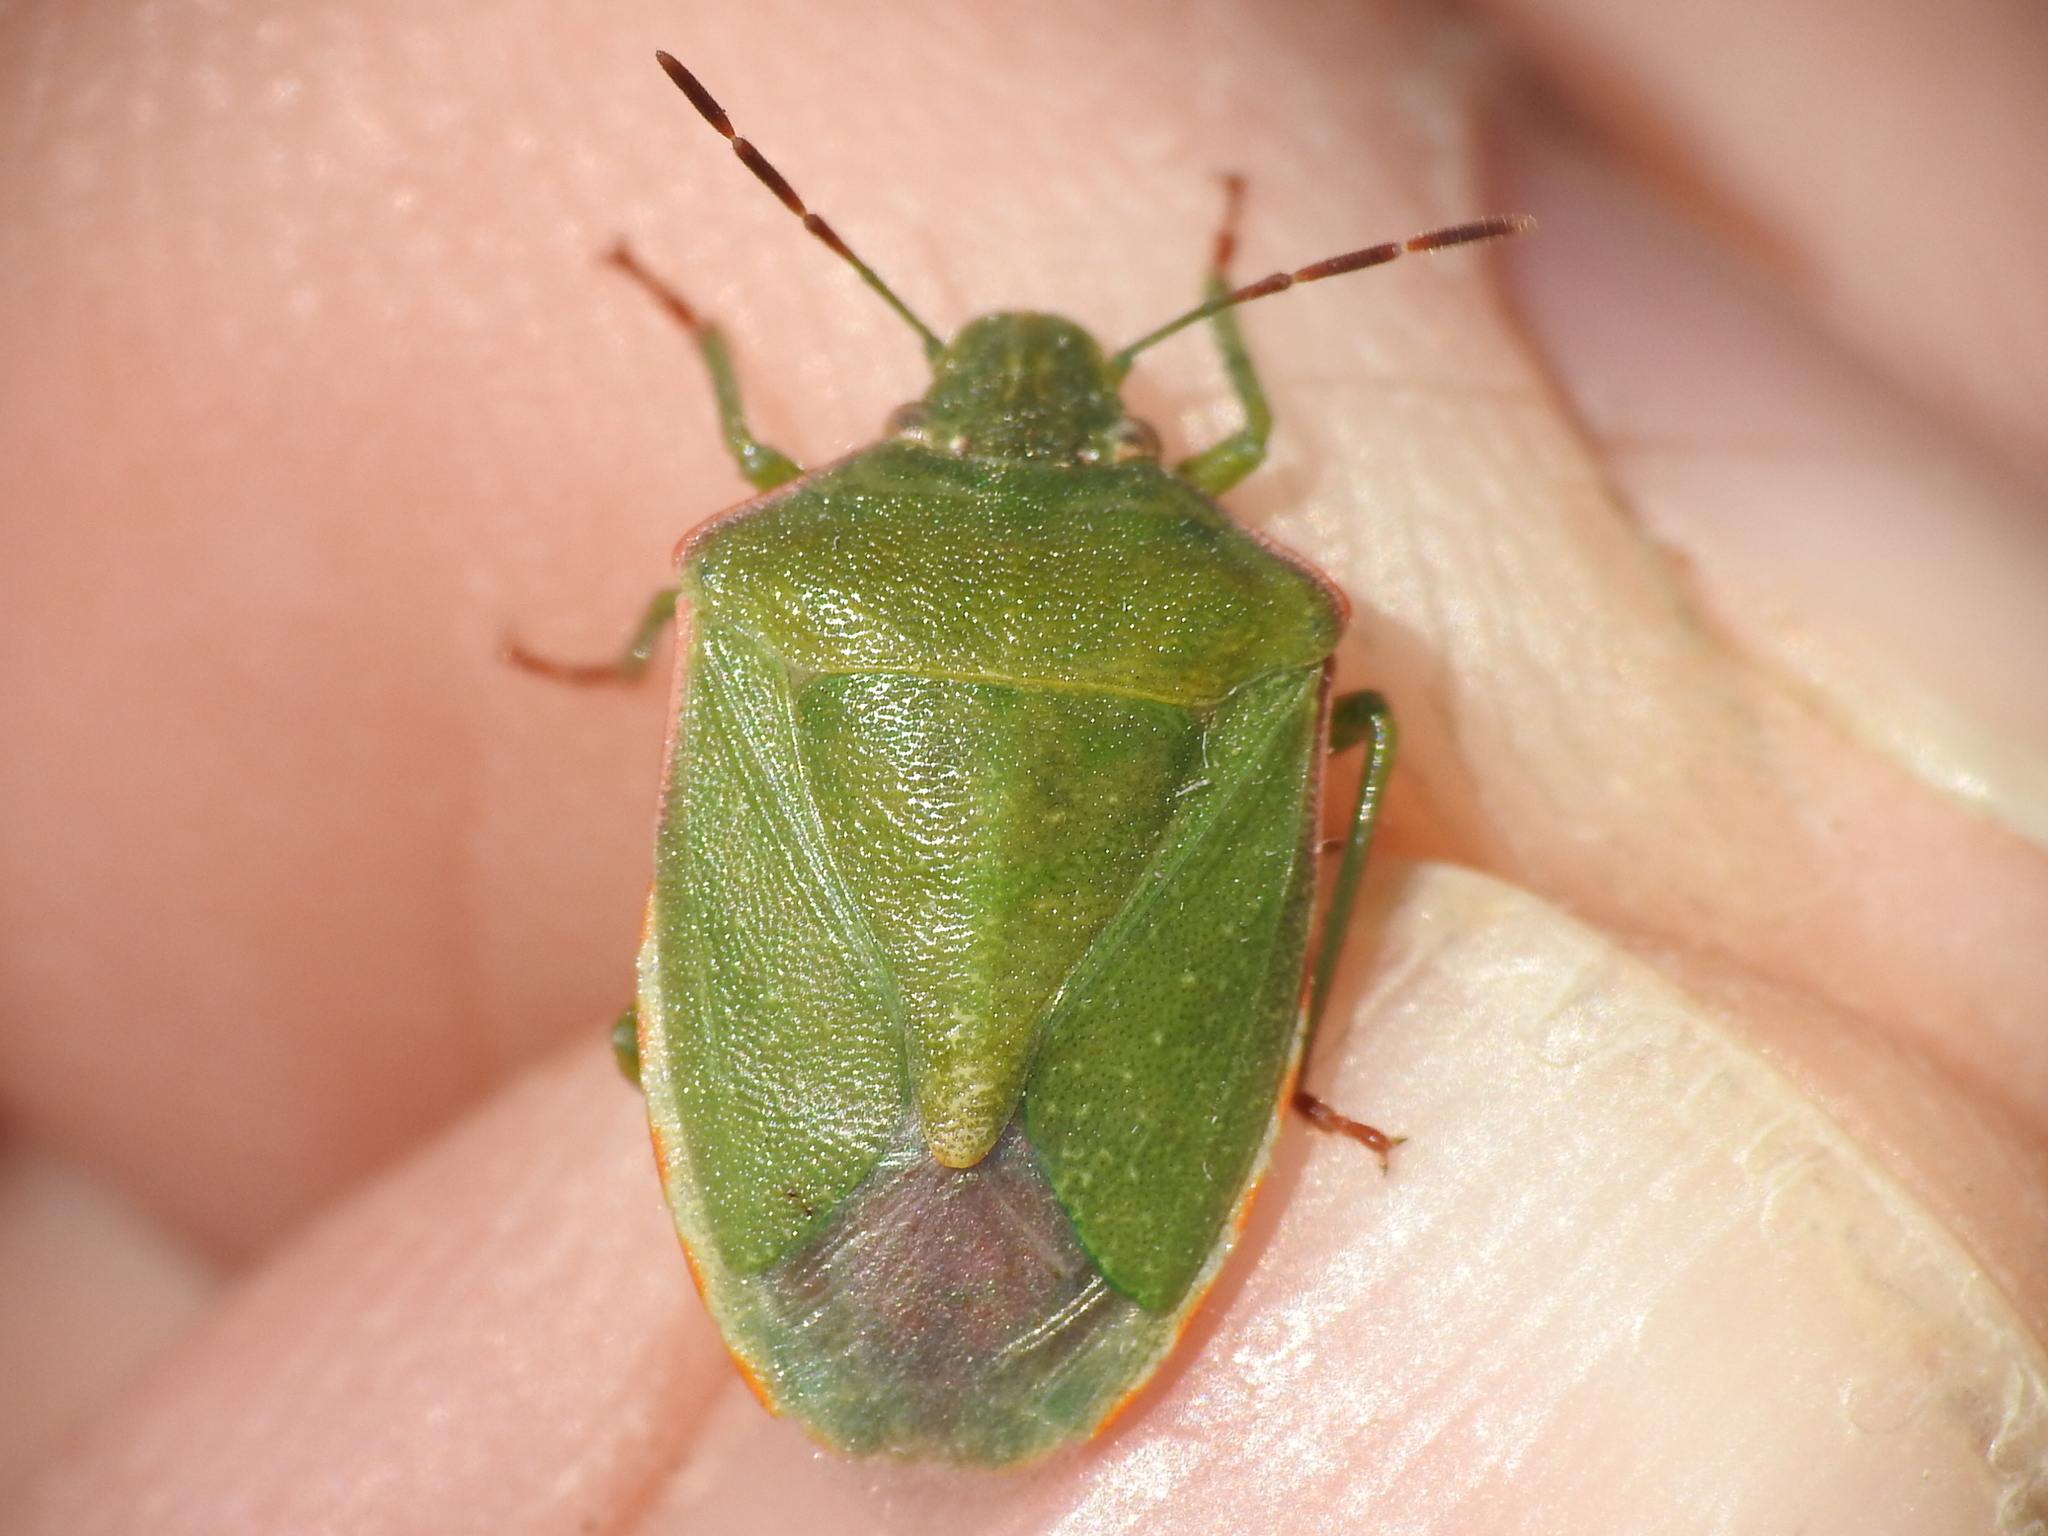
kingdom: Animalia
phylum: Arthropoda
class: Insecta
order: Hemiptera
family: Pentatomidae
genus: Thyanta
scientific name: Thyanta accerra
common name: Stink bug
